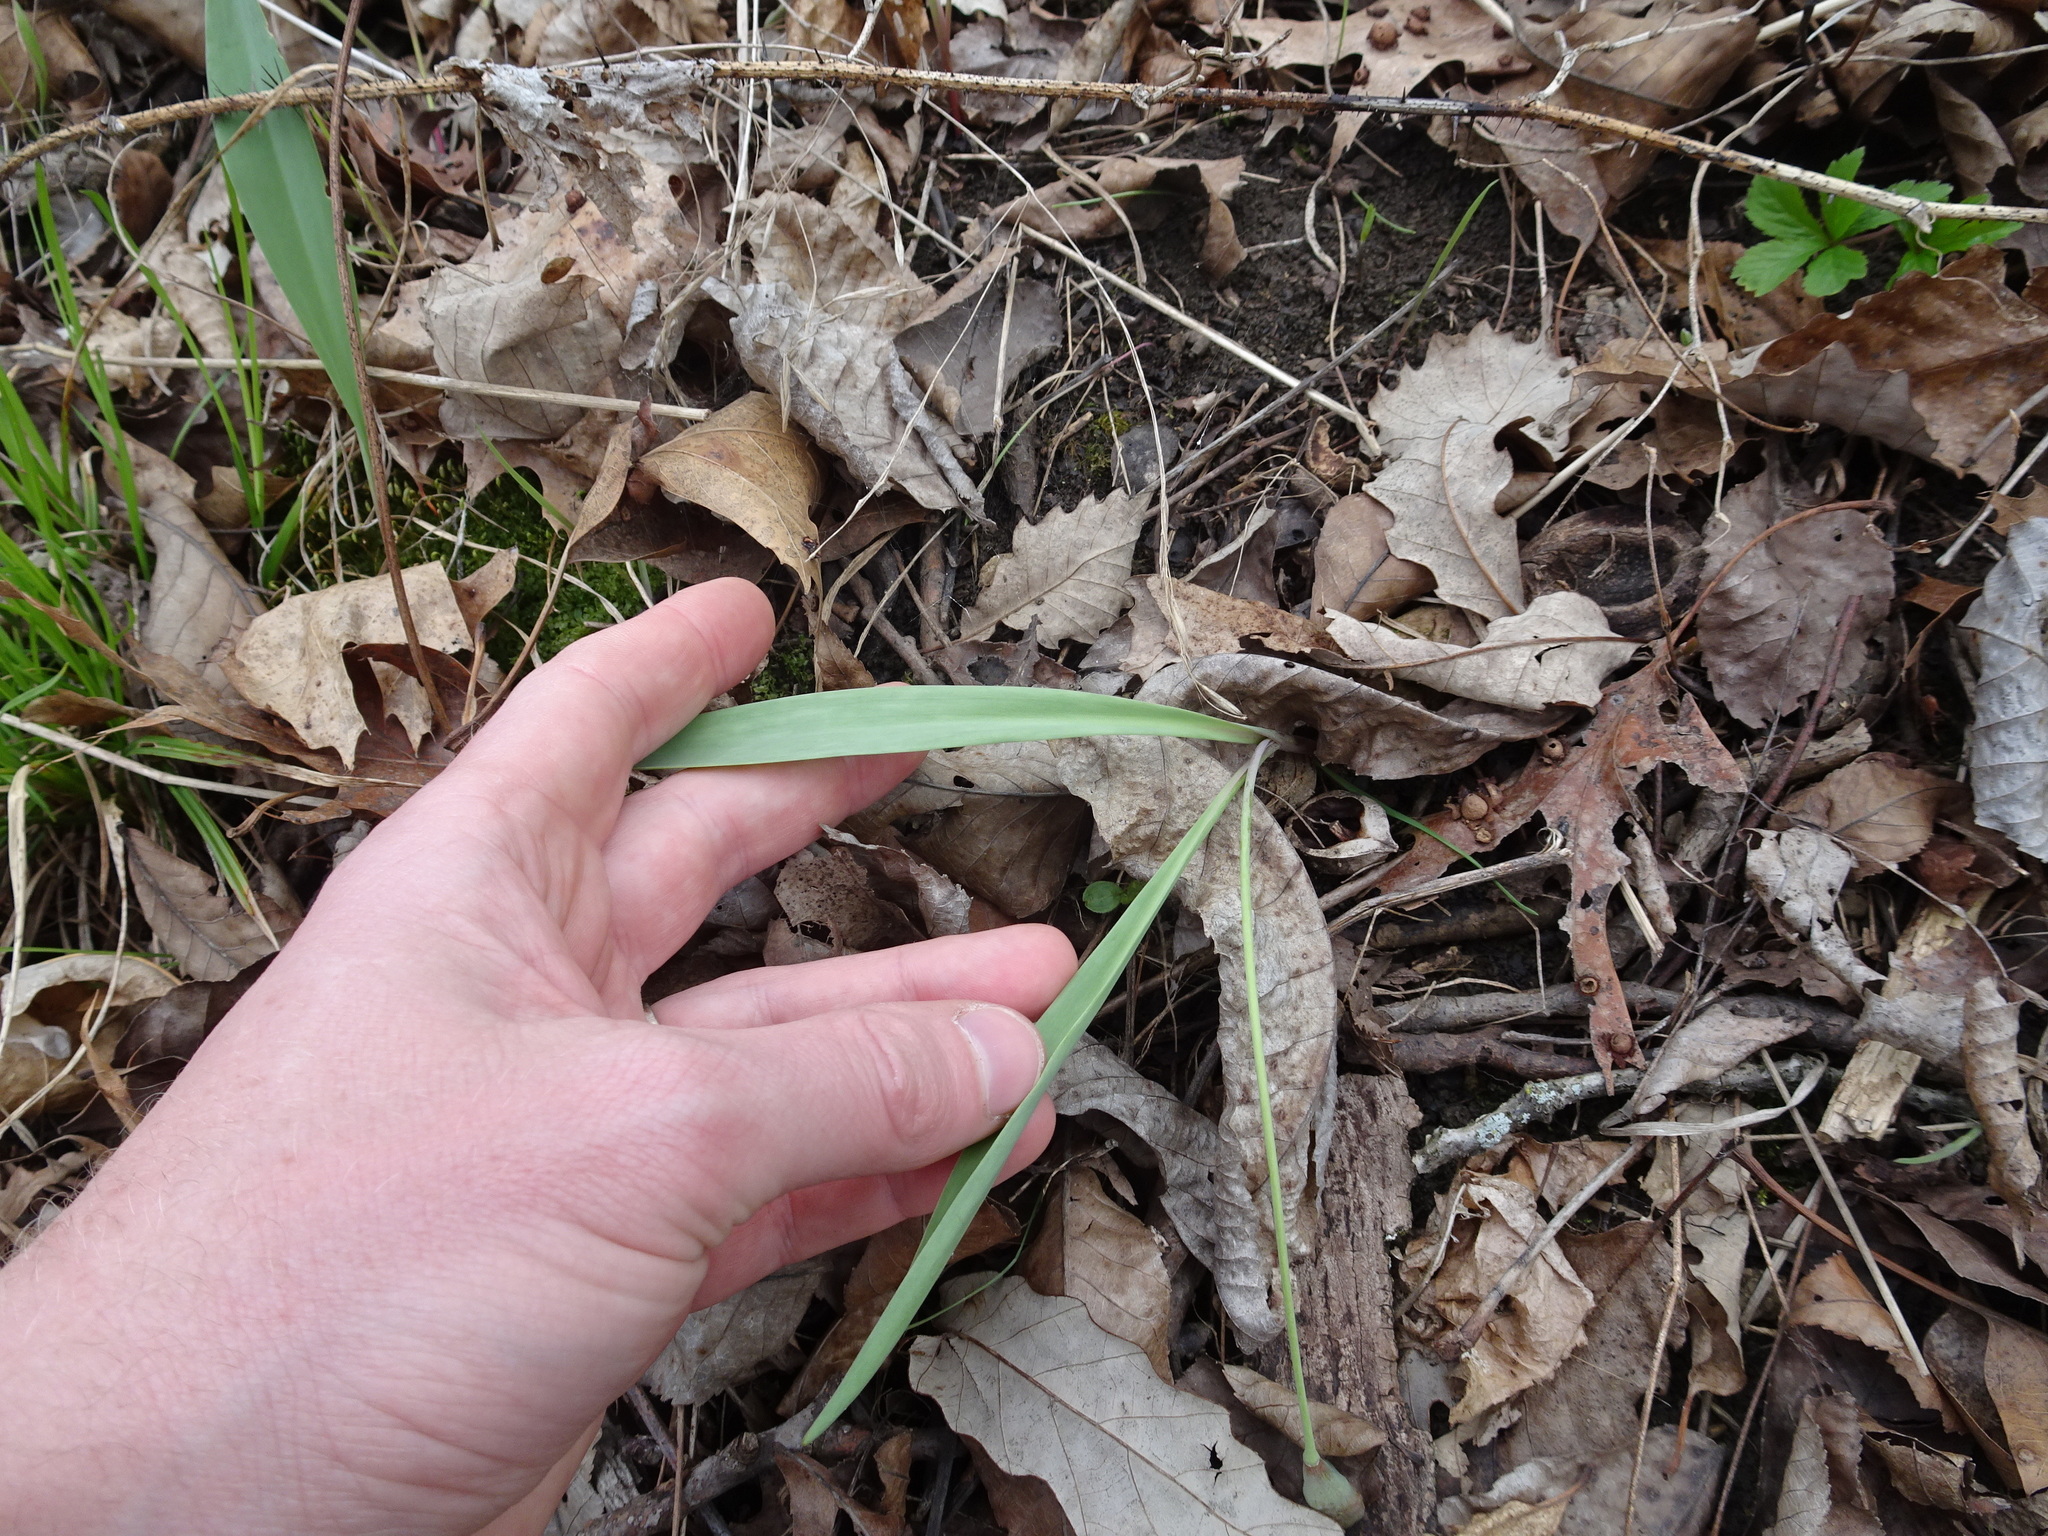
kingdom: Plantae
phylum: Tracheophyta
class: Liliopsida
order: Liliales
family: Liliaceae
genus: Erythronium
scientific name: Erythronium mesochoreum
